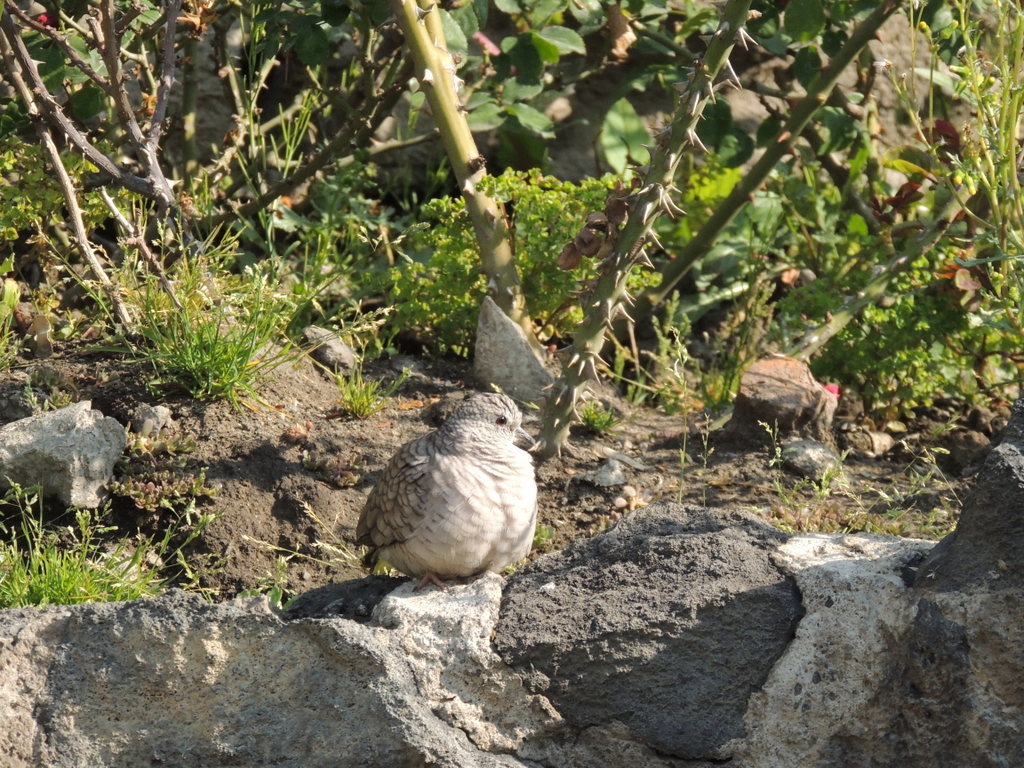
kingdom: Animalia
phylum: Chordata
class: Aves
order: Columbiformes
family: Columbidae
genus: Columbina
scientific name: Columbina inca
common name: Inca dove
